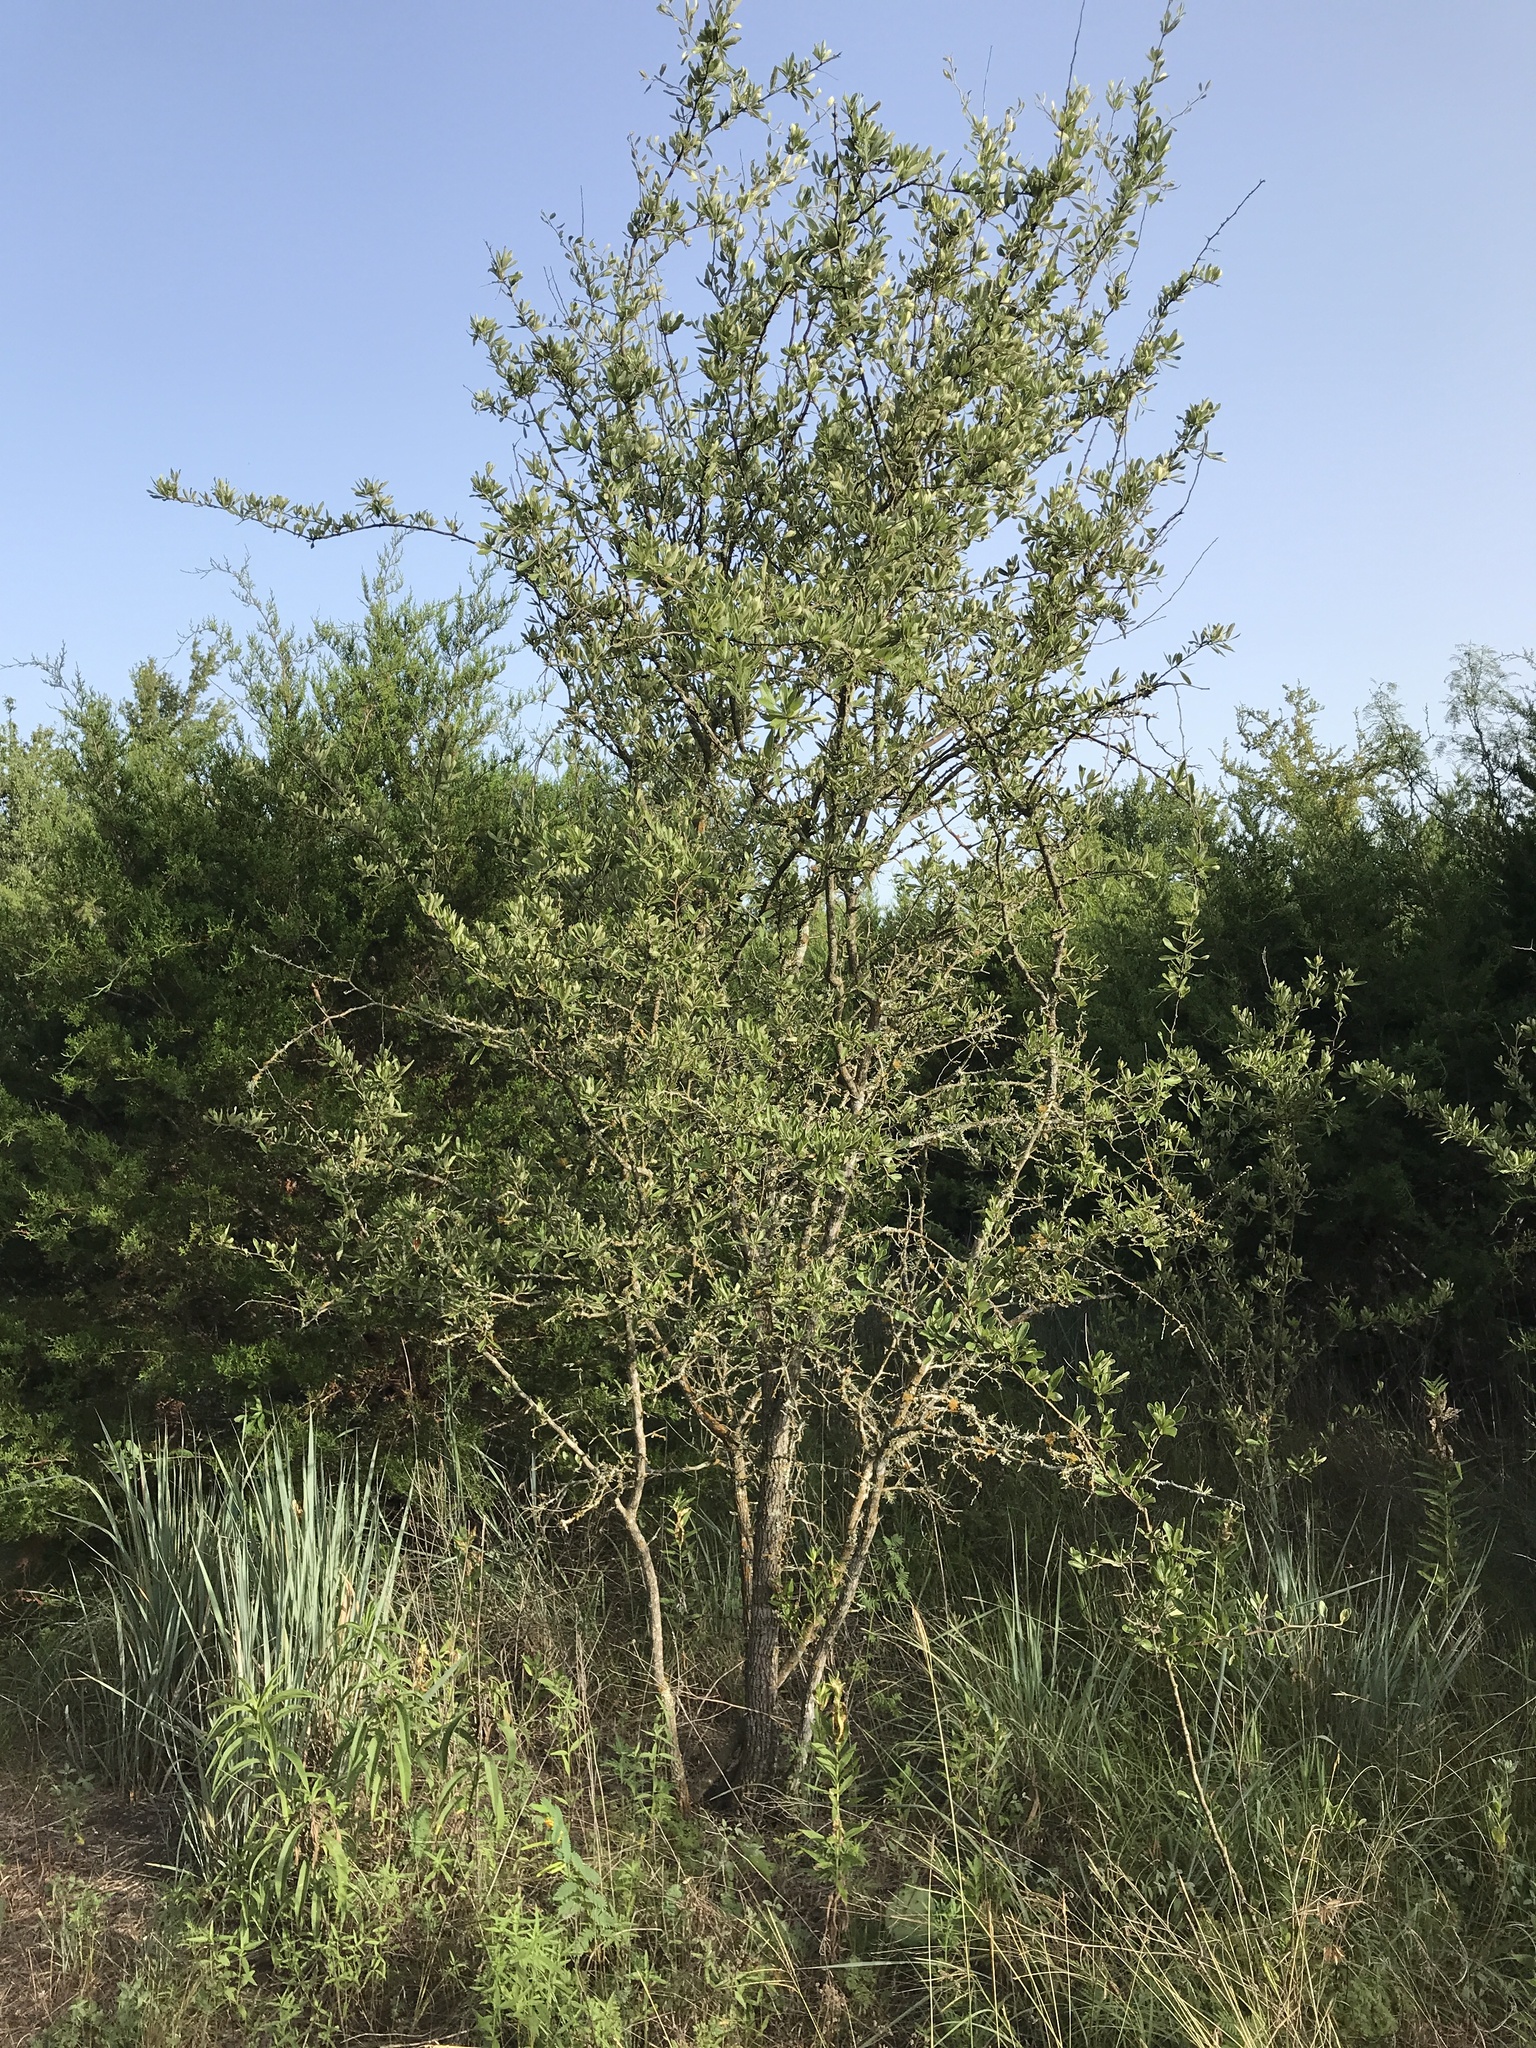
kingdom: Plantae
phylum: Tracheophyta
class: Magnoliopsida
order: Ericales
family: Sapotaceae
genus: Sideroxylon
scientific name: Sideroxylon lanuginosum
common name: Chittamwood
